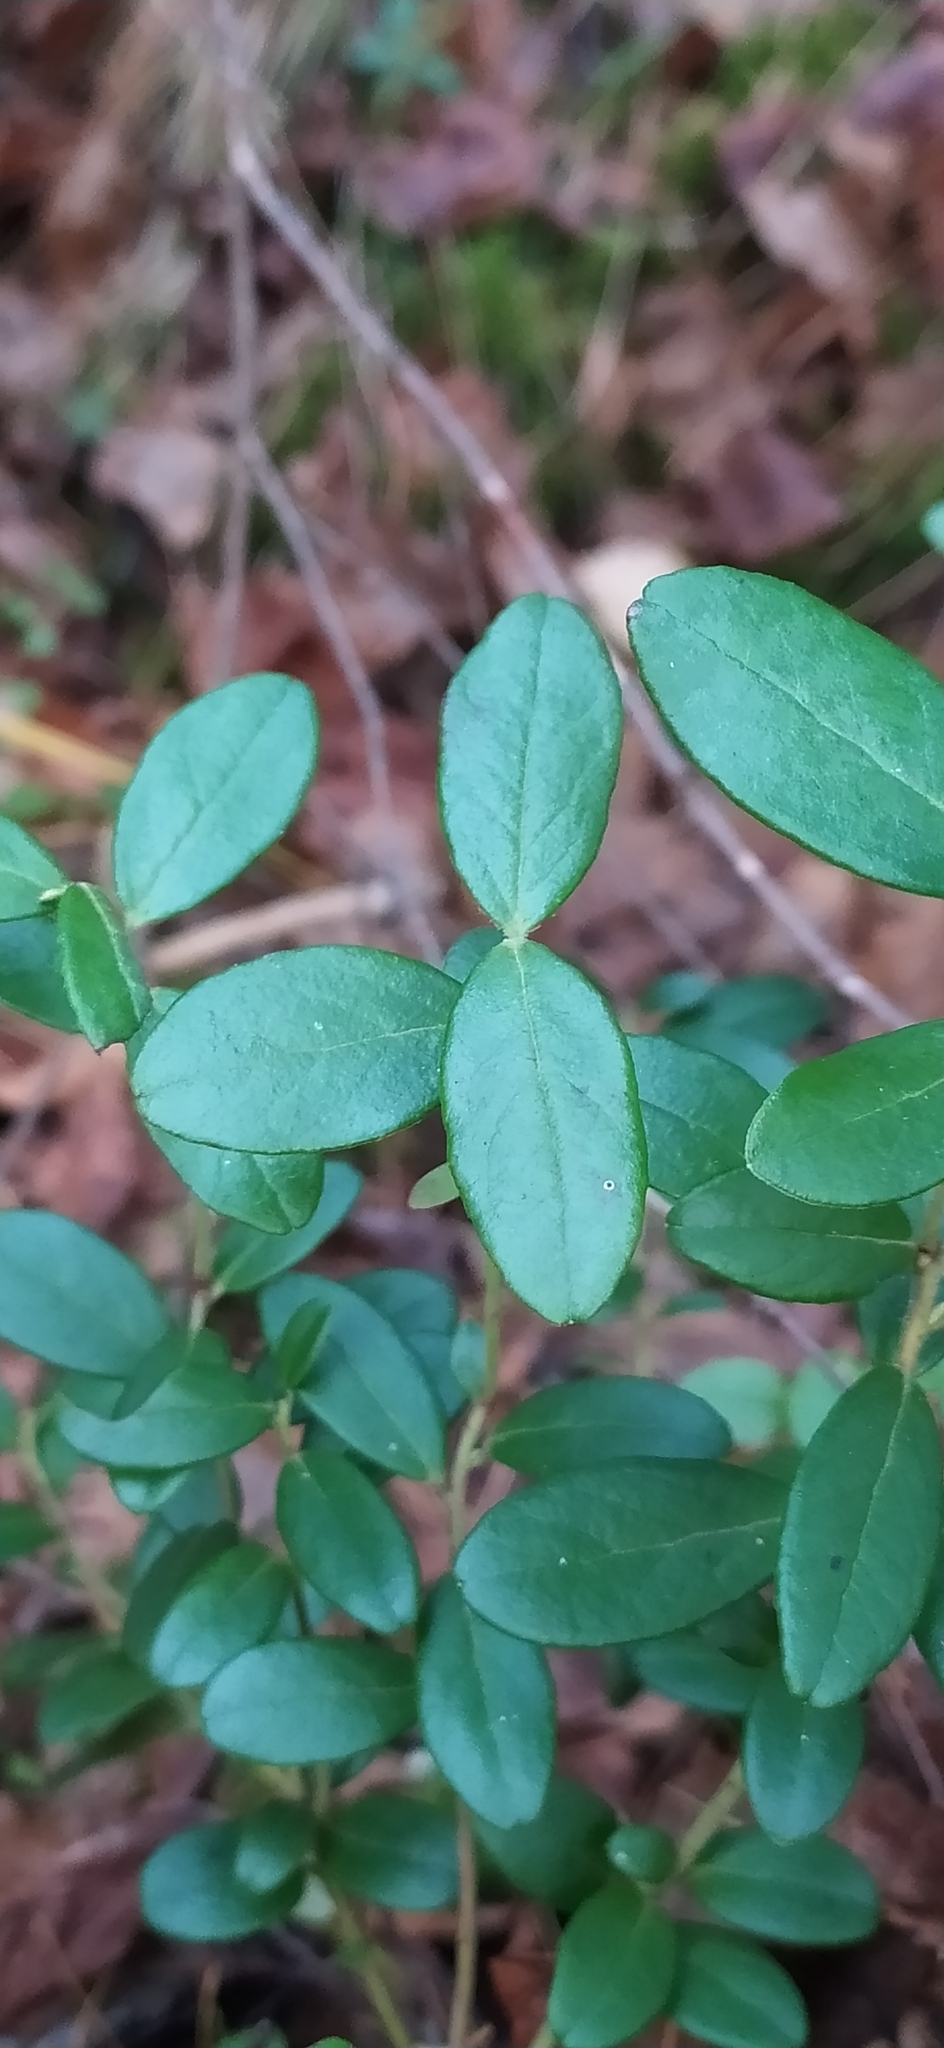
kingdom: Plantae
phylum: Tracheophyta
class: Magnoliopsida
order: Ericales
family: Ericaceae
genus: Vaccinium
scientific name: Vaccinium vitis-idaea
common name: Cowberry
